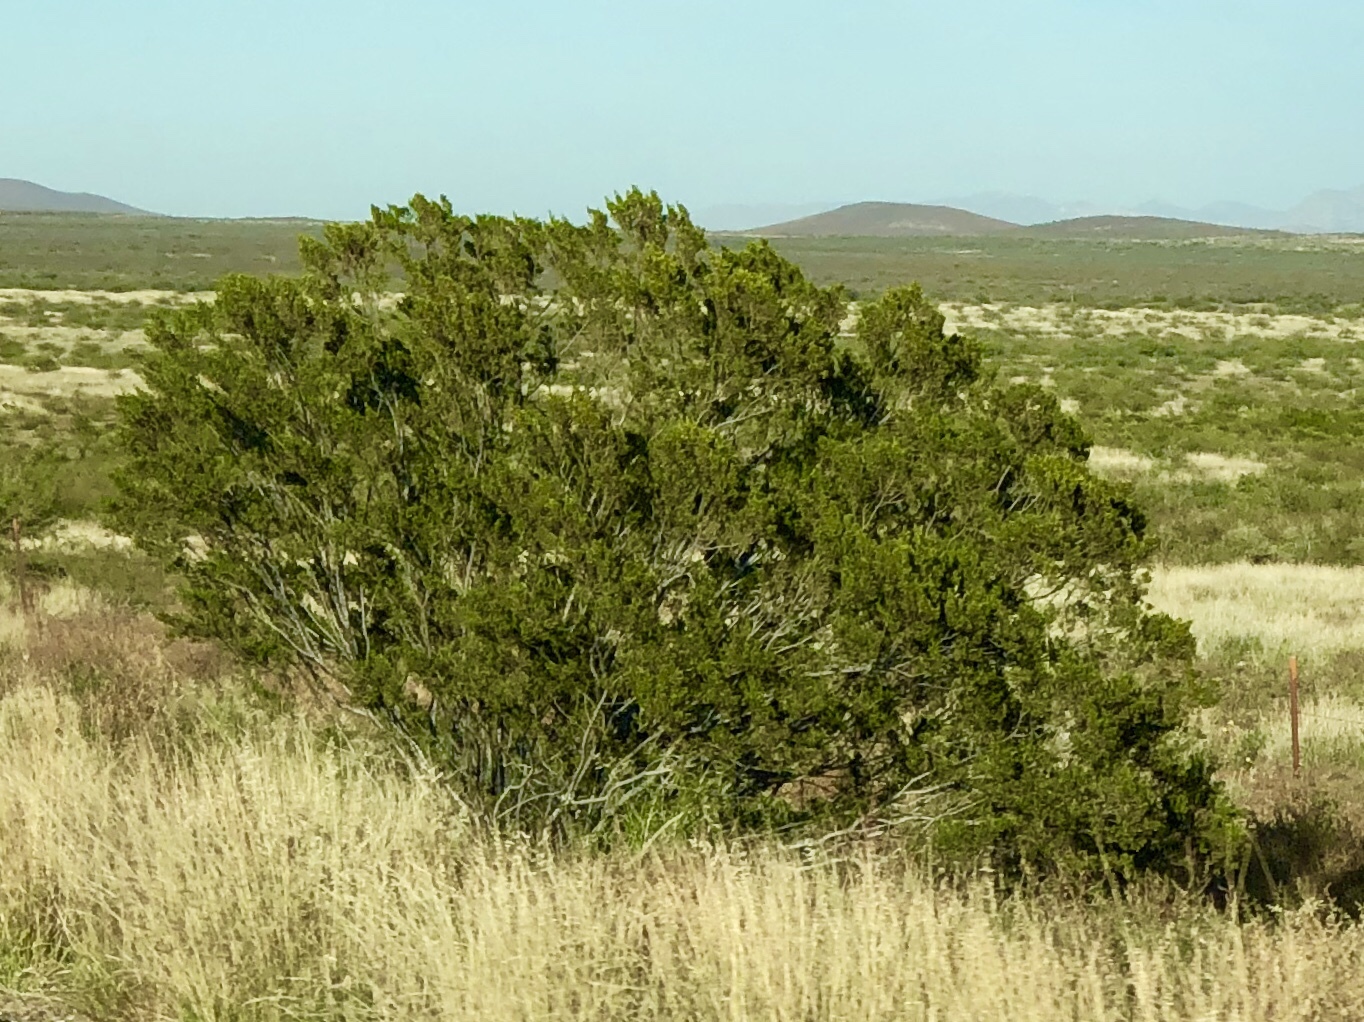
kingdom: Plantae
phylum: Tracheophyta
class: Magnoliopsida
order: Zygophyllales
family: Zygophyllaceae
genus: Larrea
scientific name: Larrea tridentata
